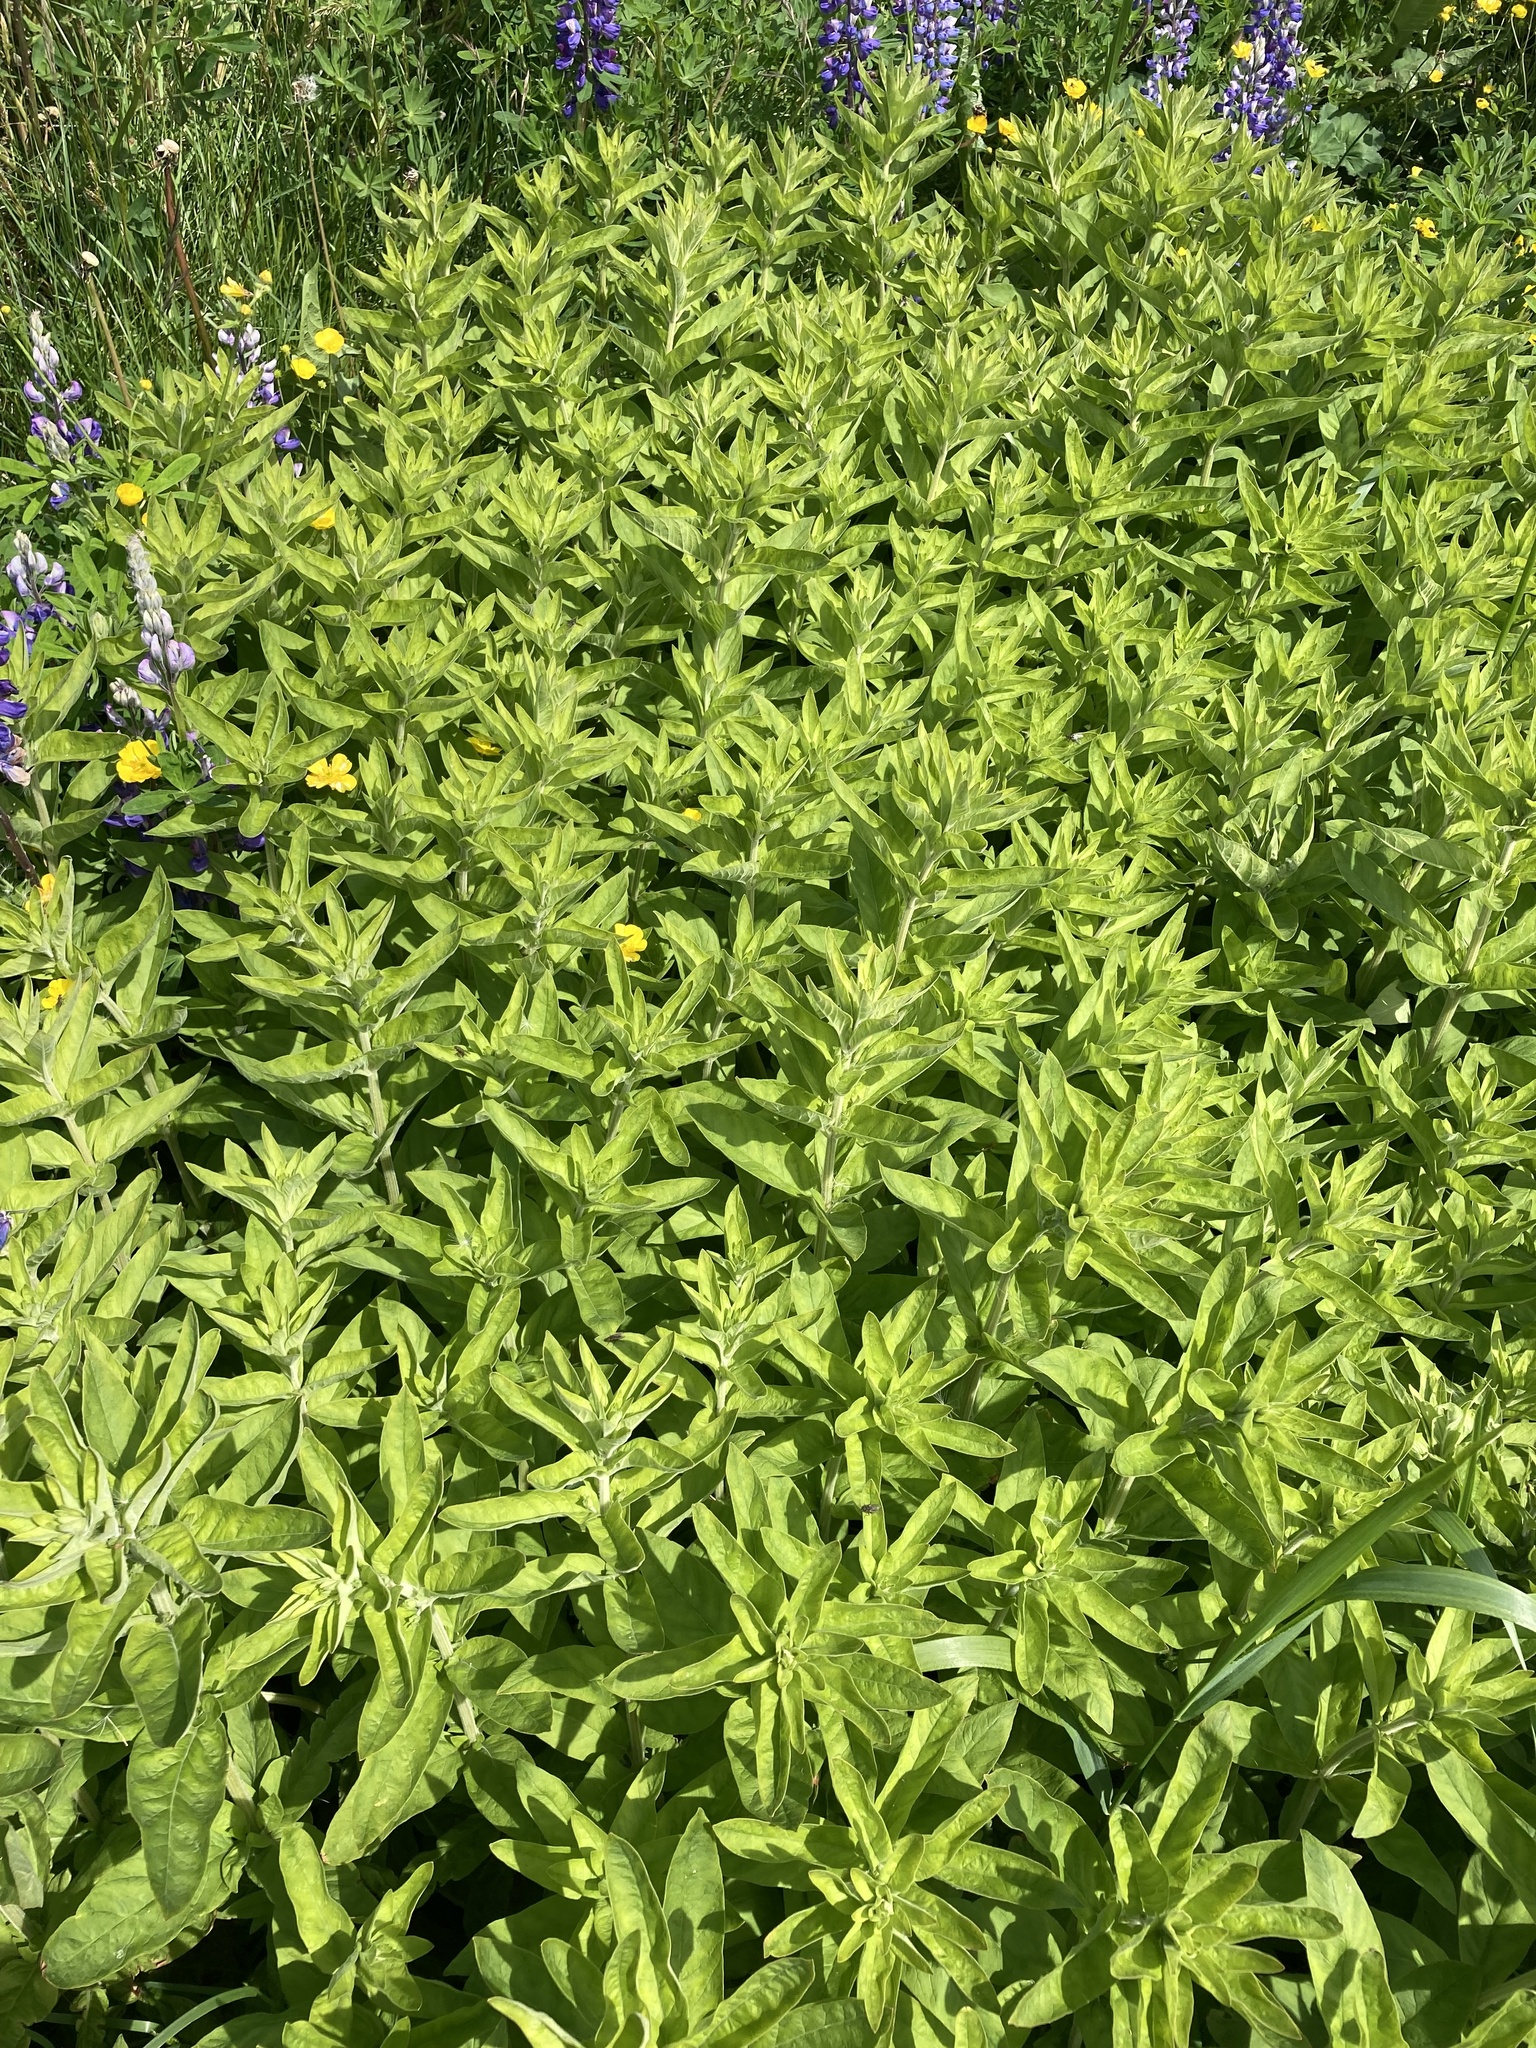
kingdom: Plantae
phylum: Tracheophyta
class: Magnoliopsida
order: Ericales
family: Primulaceae
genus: Lysimachia
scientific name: Lysimachia punctata
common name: Dotted loosestrife
